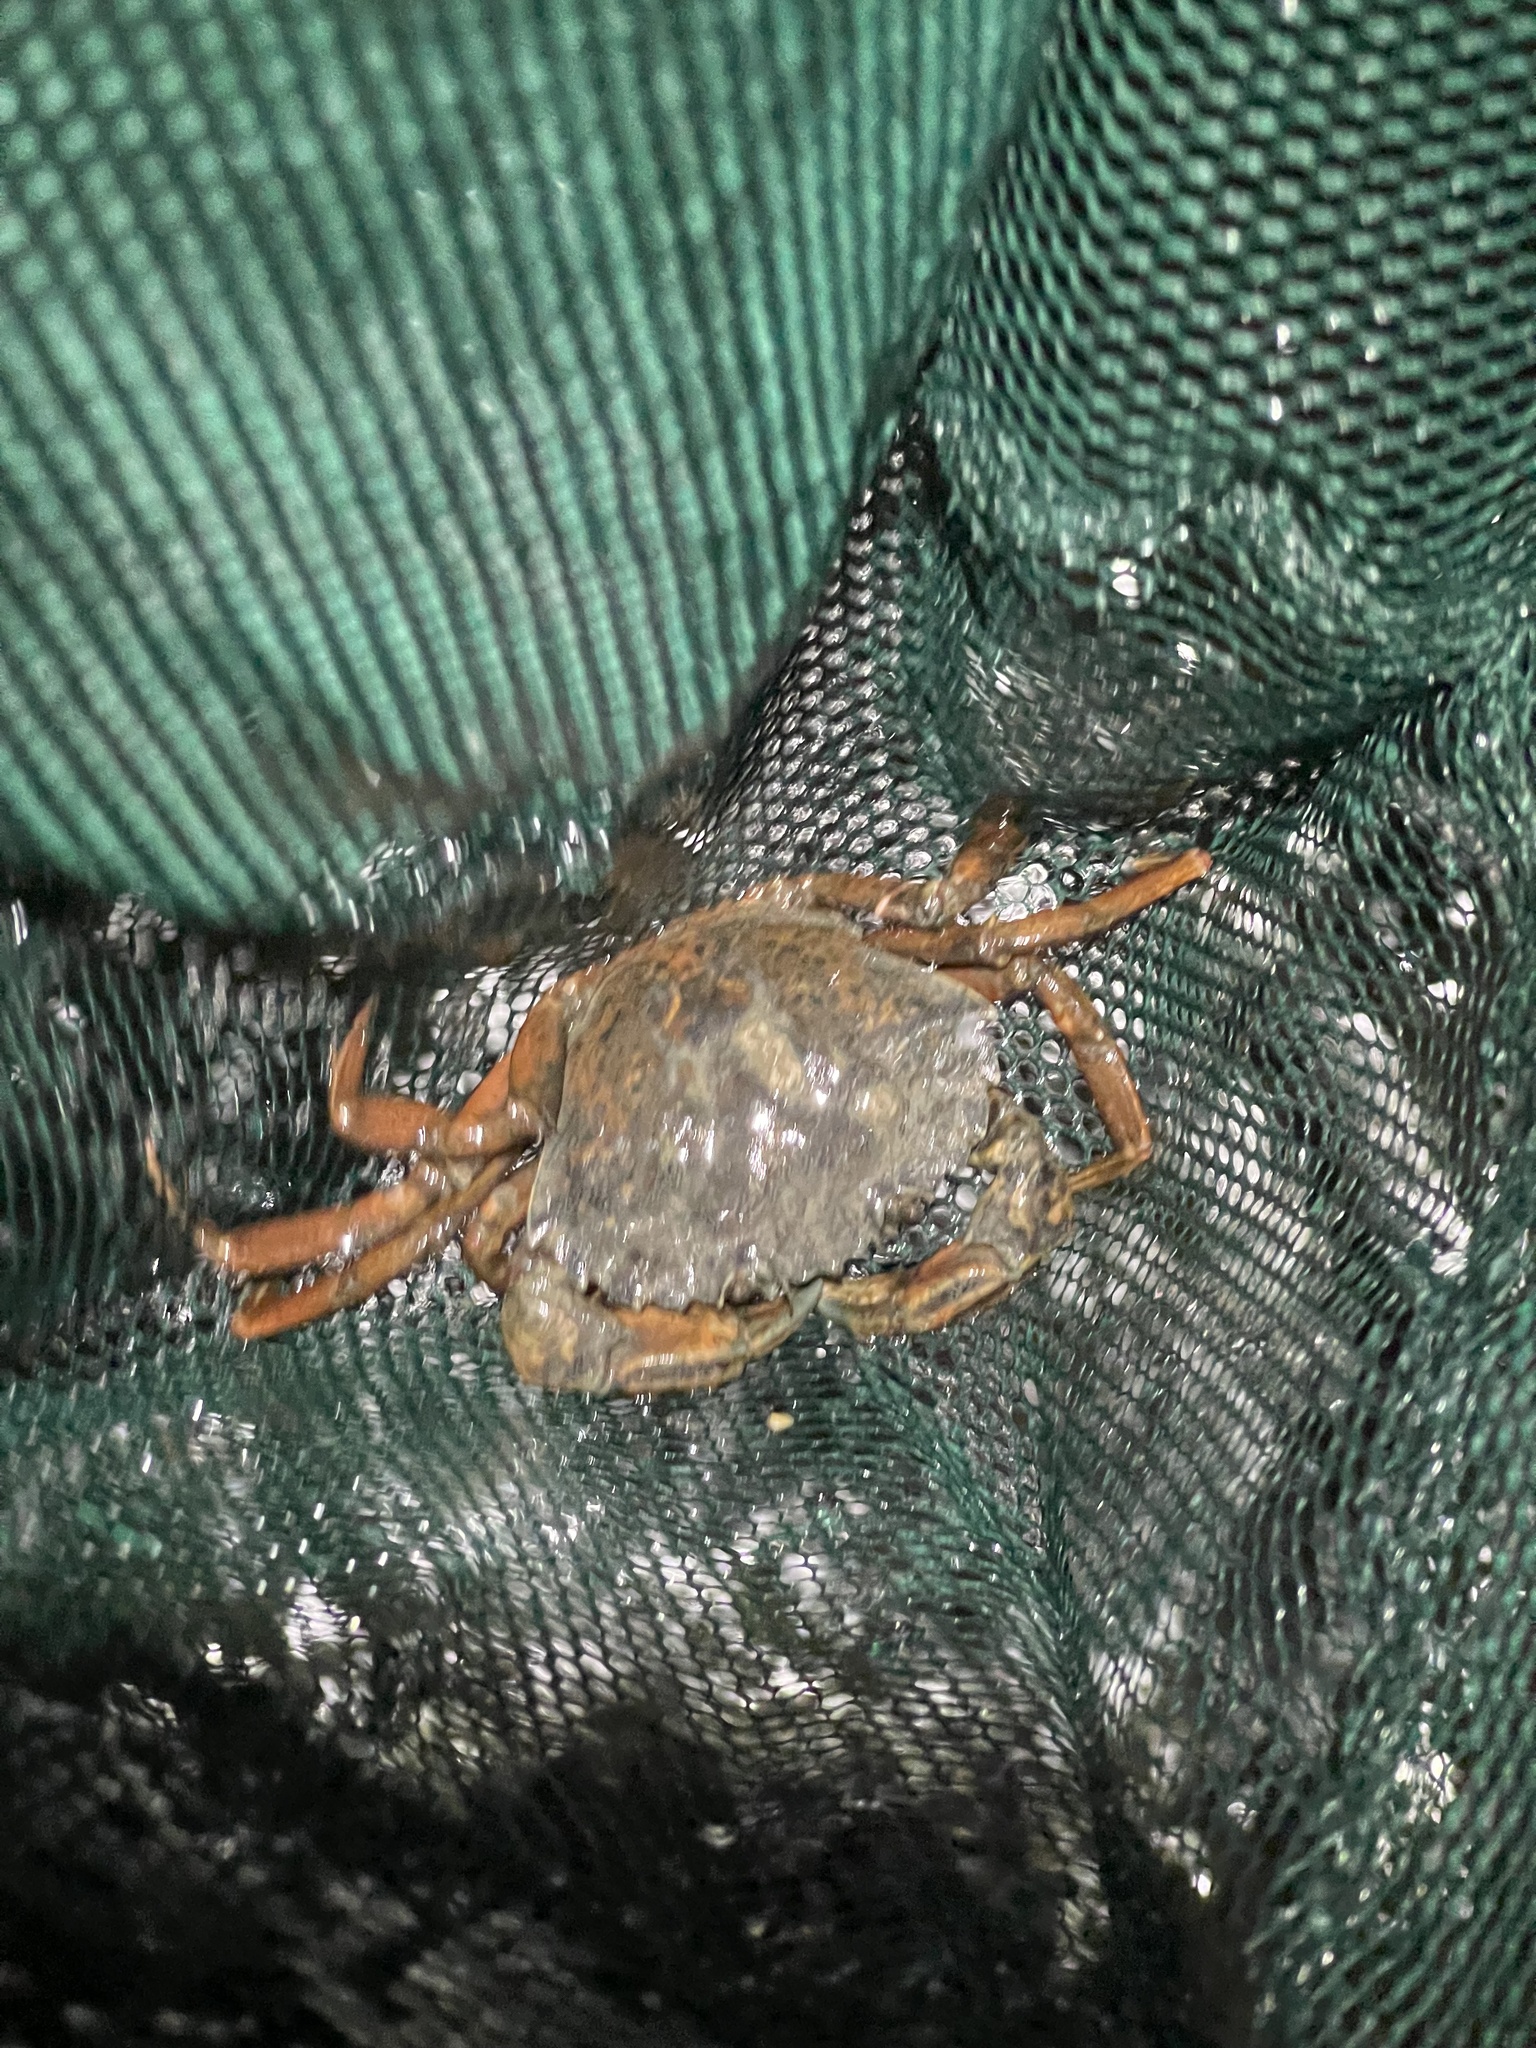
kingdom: Animalia
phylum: Arthropoda
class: Malacostraca
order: Decapoda
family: Carcinidae
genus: Carcinus
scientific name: Carcinus maenas
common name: European green crab
